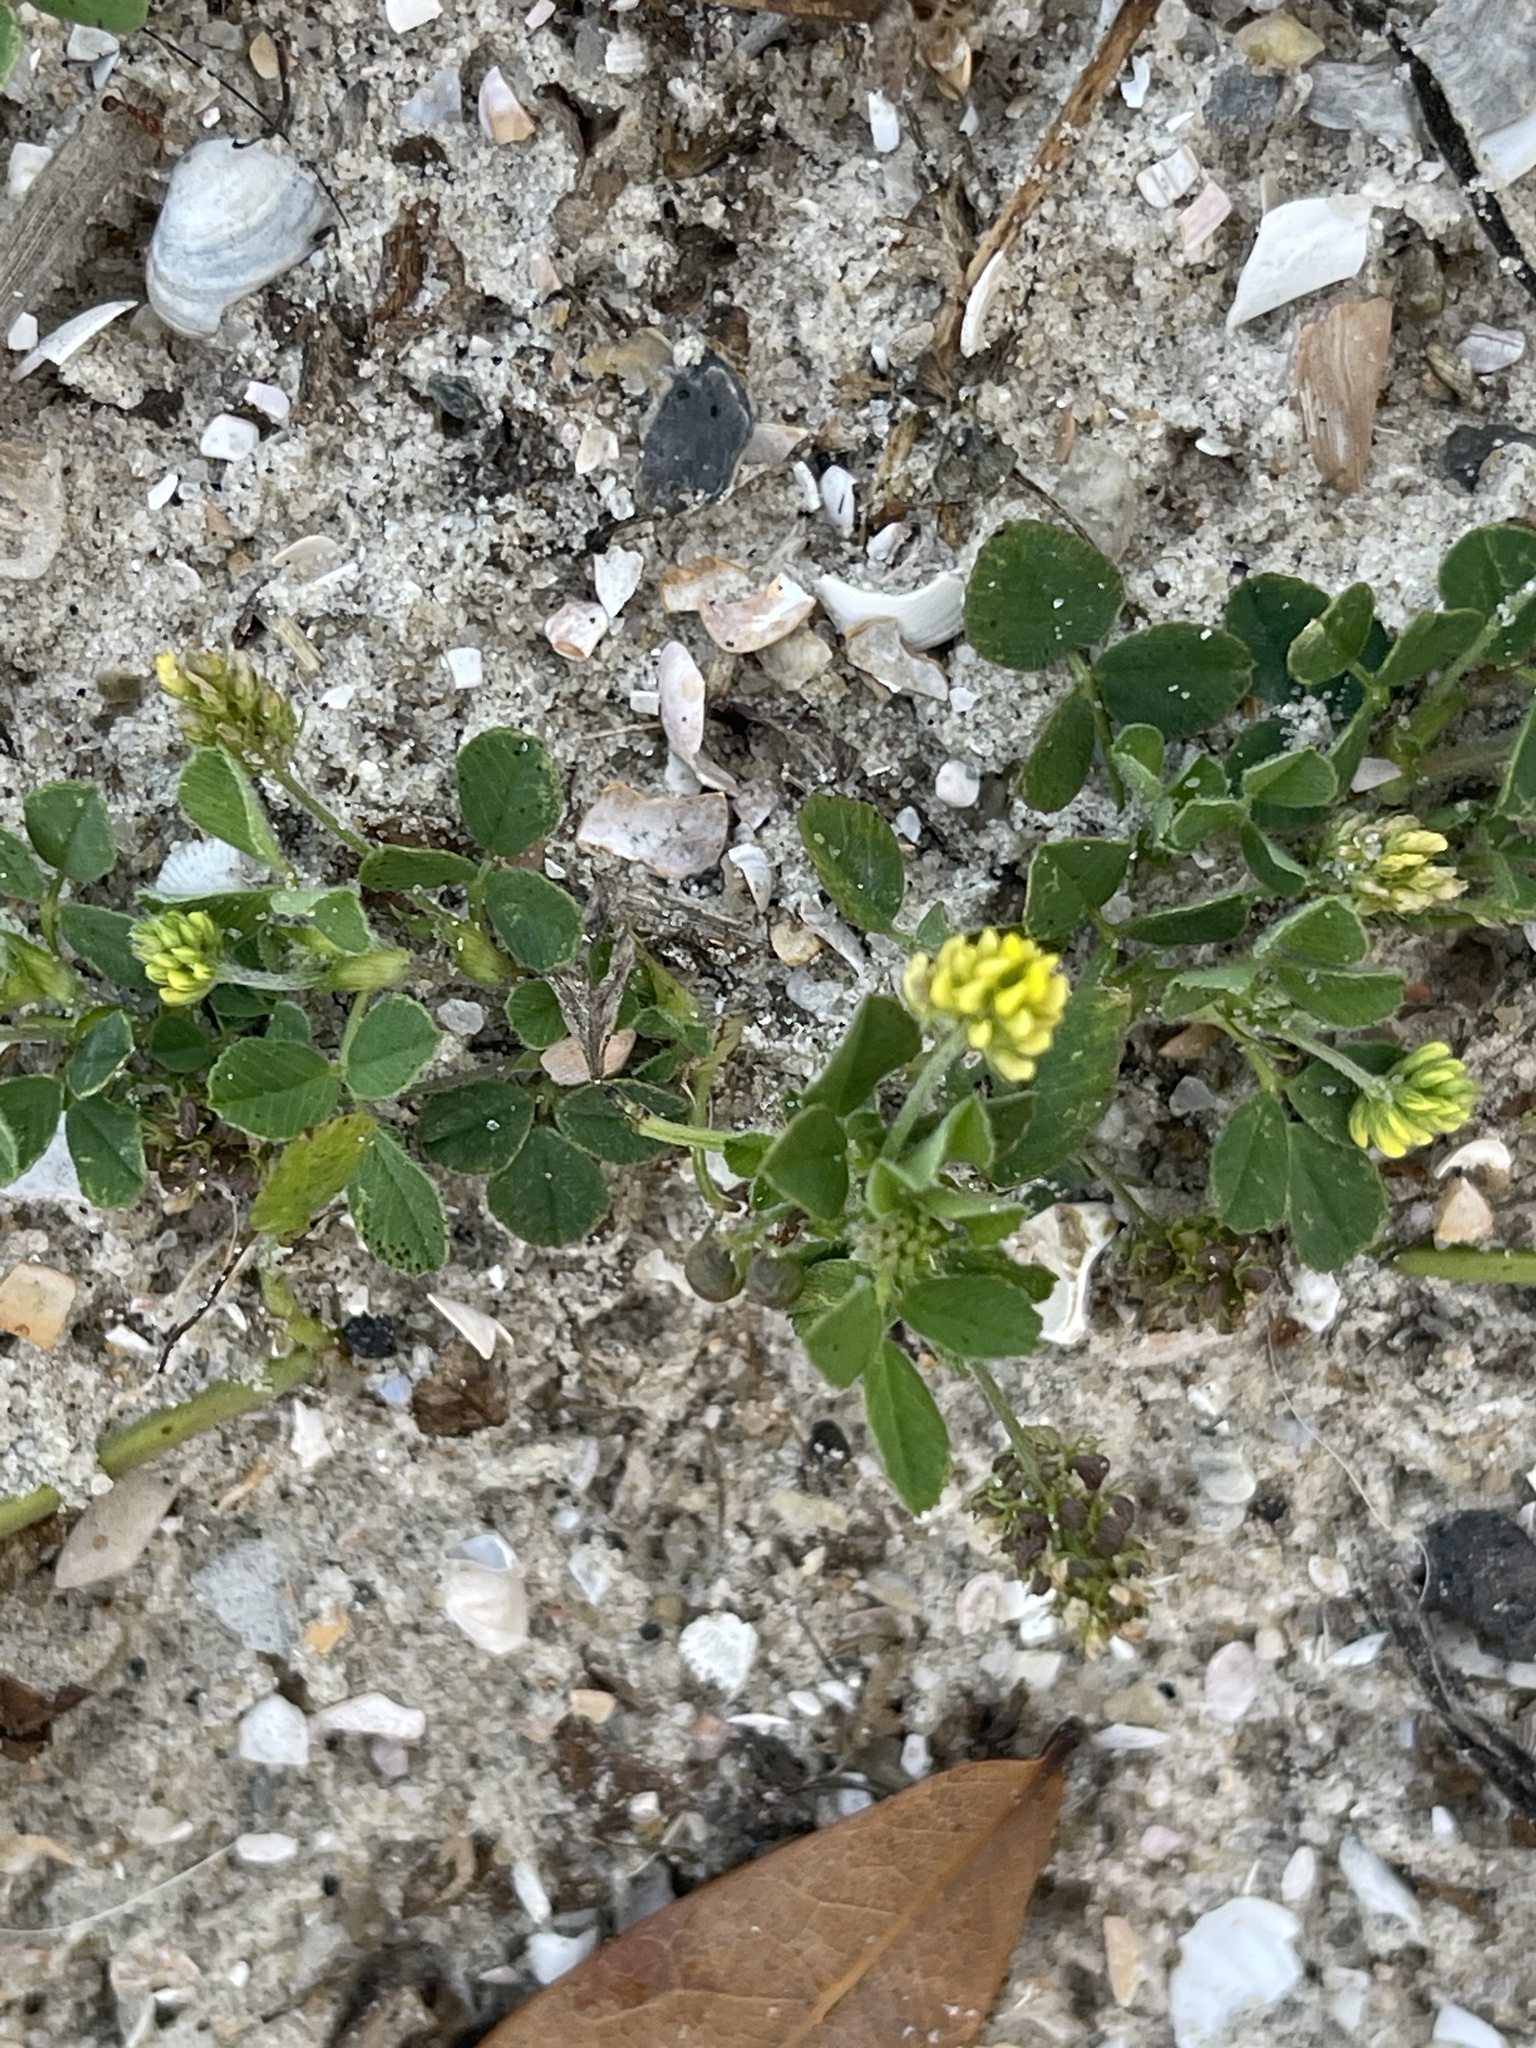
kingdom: Plantae
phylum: Tracheophyta
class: Magnoliopsida
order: Fabales
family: Fabaceae
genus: Medicago
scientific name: Medicago lupulina
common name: Black medick
